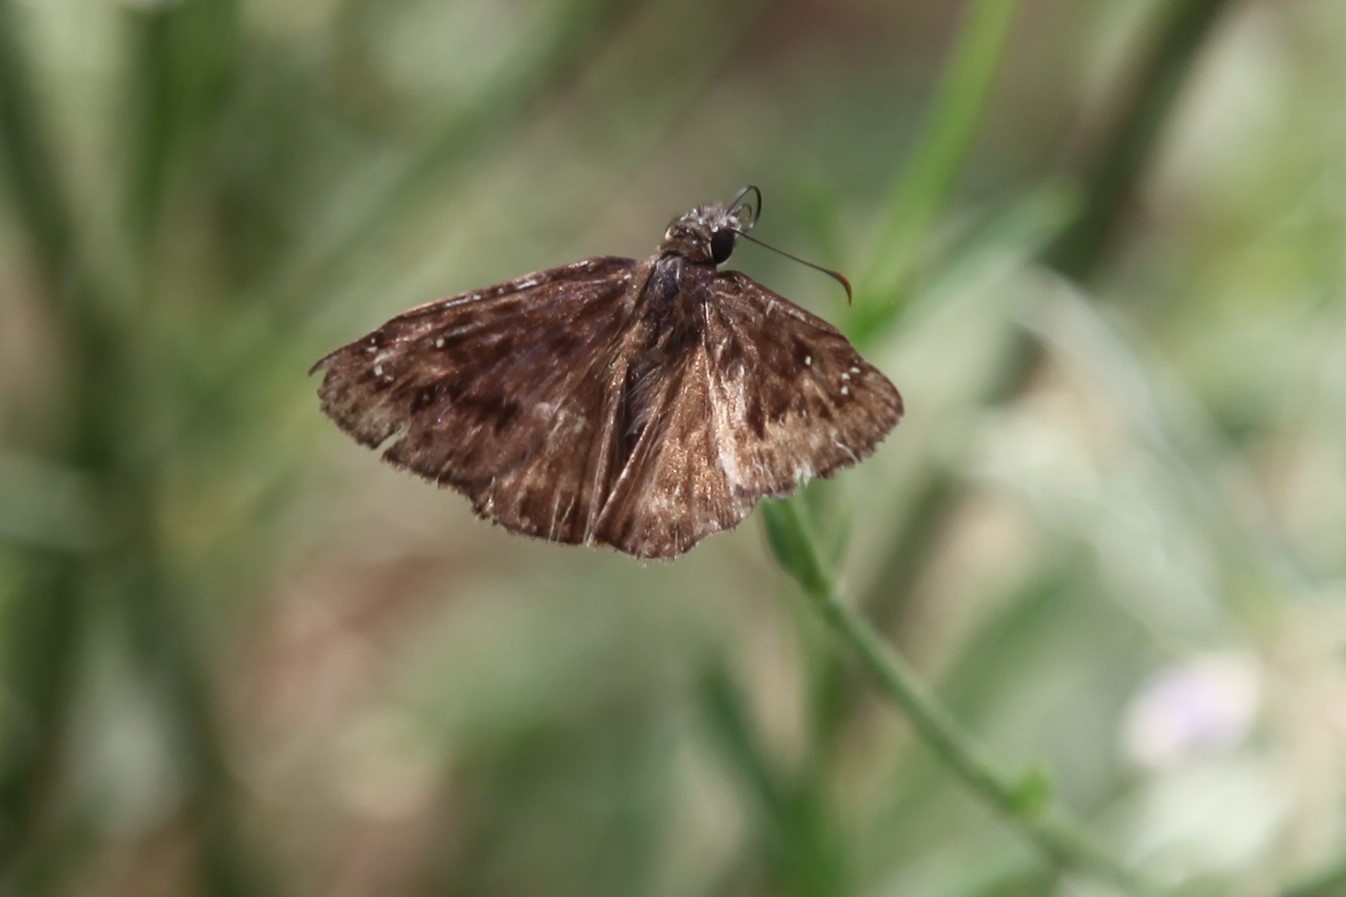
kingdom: Animalia
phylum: Arthropoda
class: Insecta
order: Lepidoptera
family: Hesperiidae
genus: Erynnis
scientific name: Erynnis horatius
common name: Horace's duskywing
